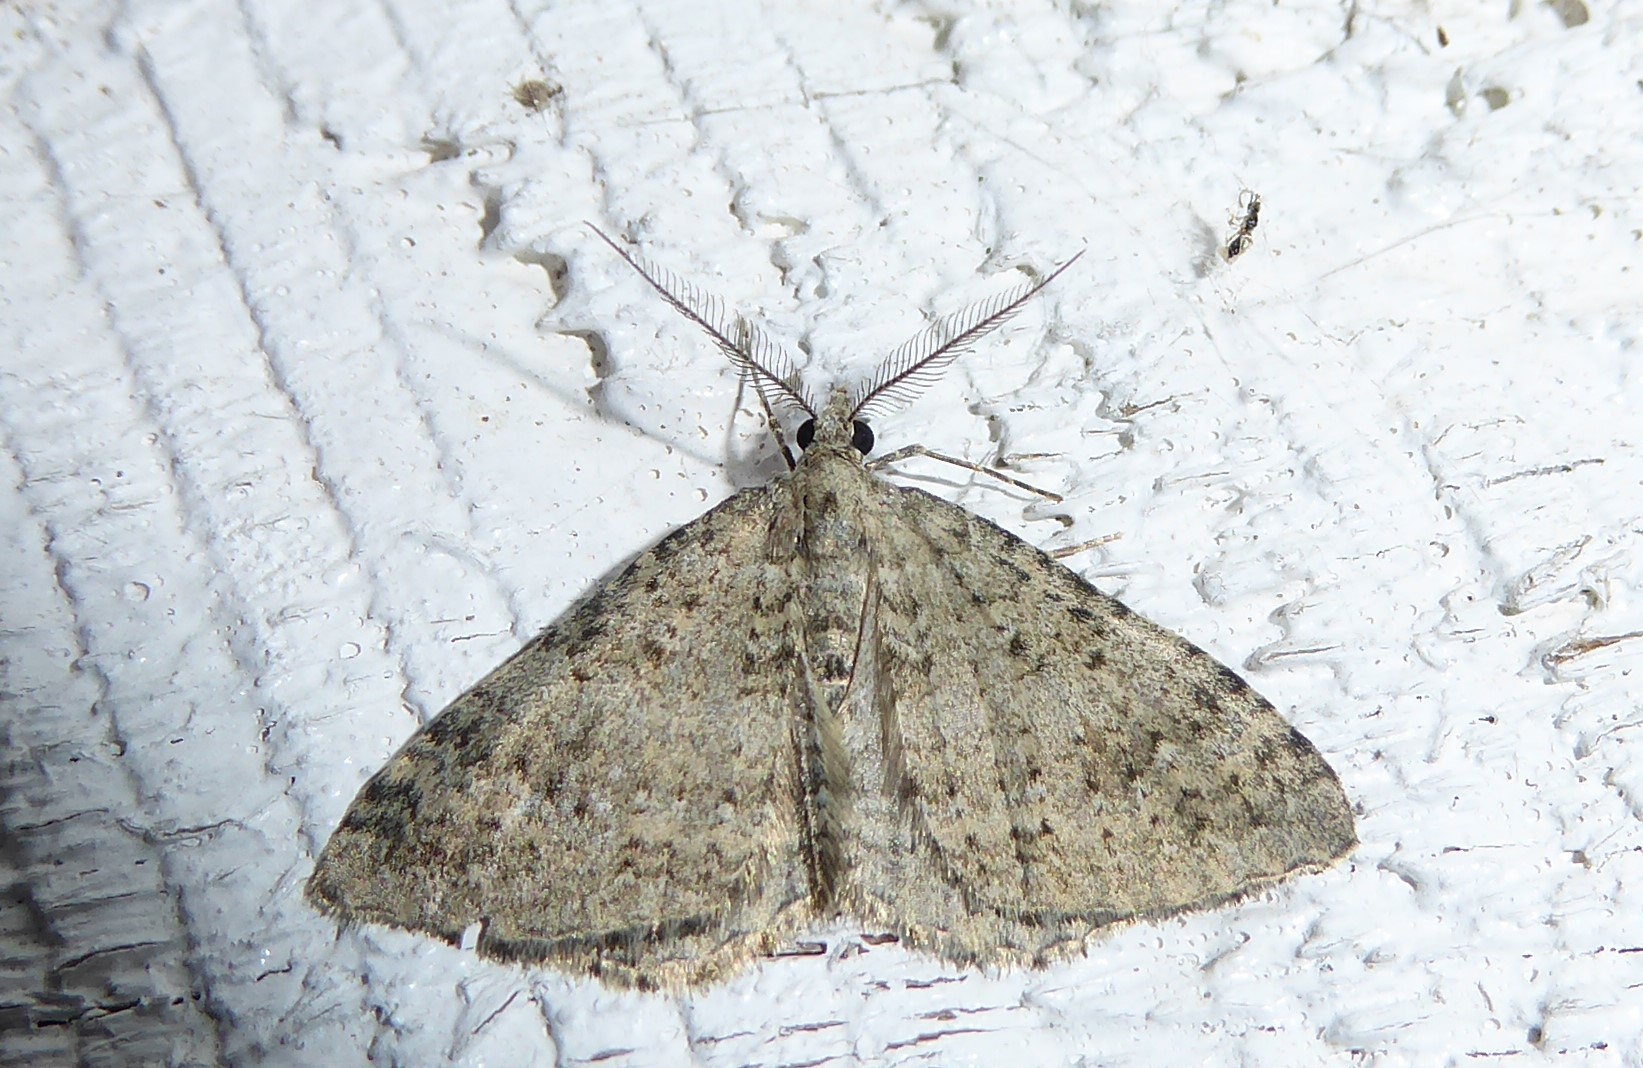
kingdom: Animalia
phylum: Arthropoda
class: Insecta
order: Lepidoptera
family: Geometridae
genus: Helastia
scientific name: Helastia corcularia
